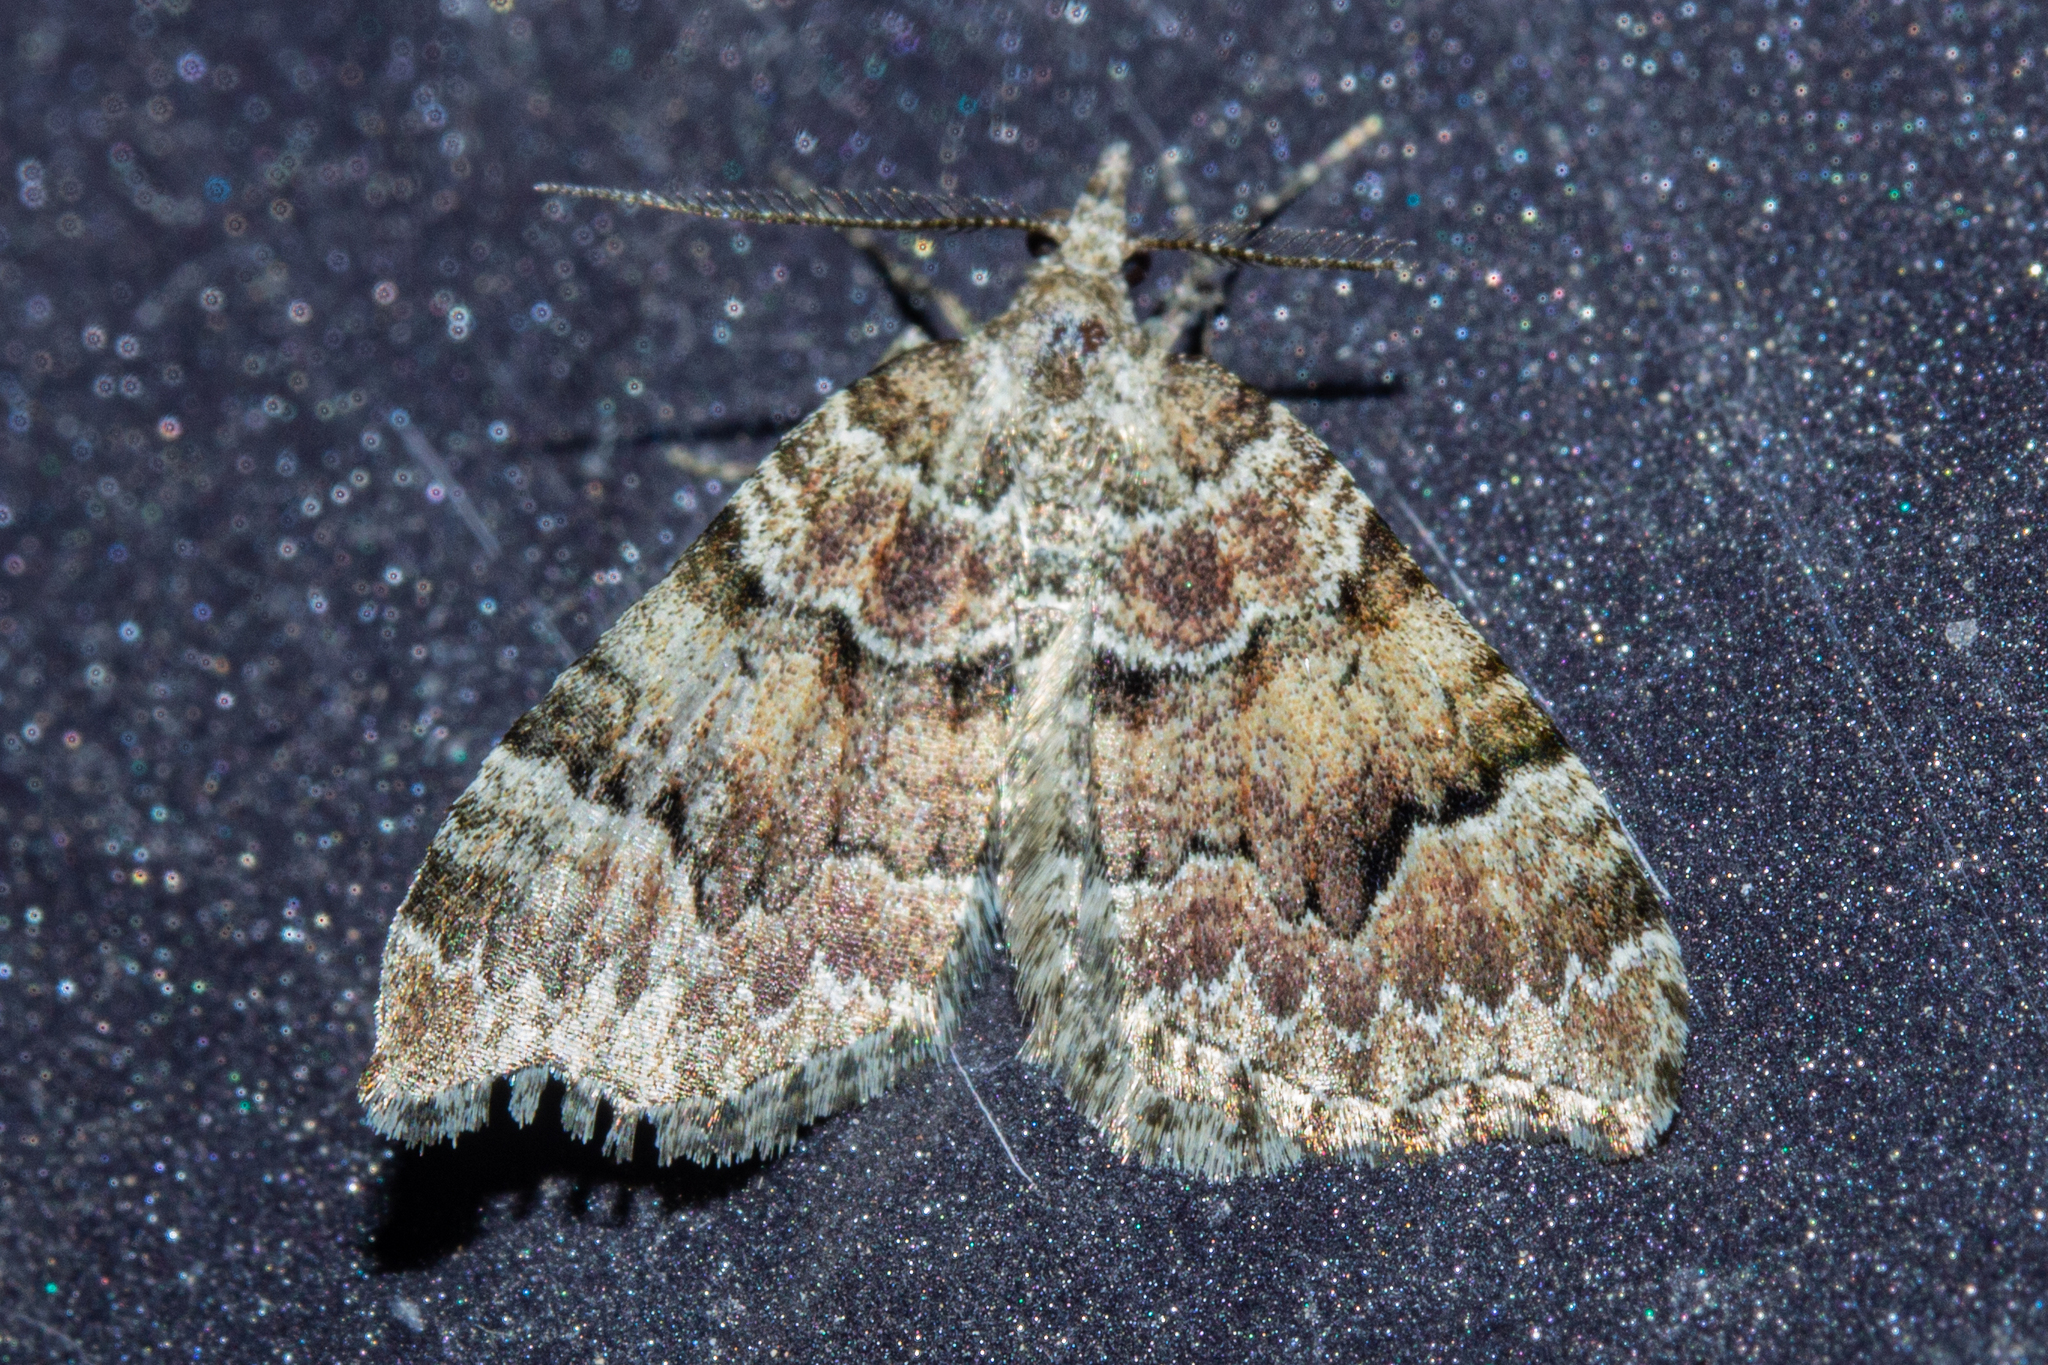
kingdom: Animalia
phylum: Arthropoda
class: Insecta
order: Lepidoptera
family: Geometridae
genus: Helastia
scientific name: Helastia cryptica
